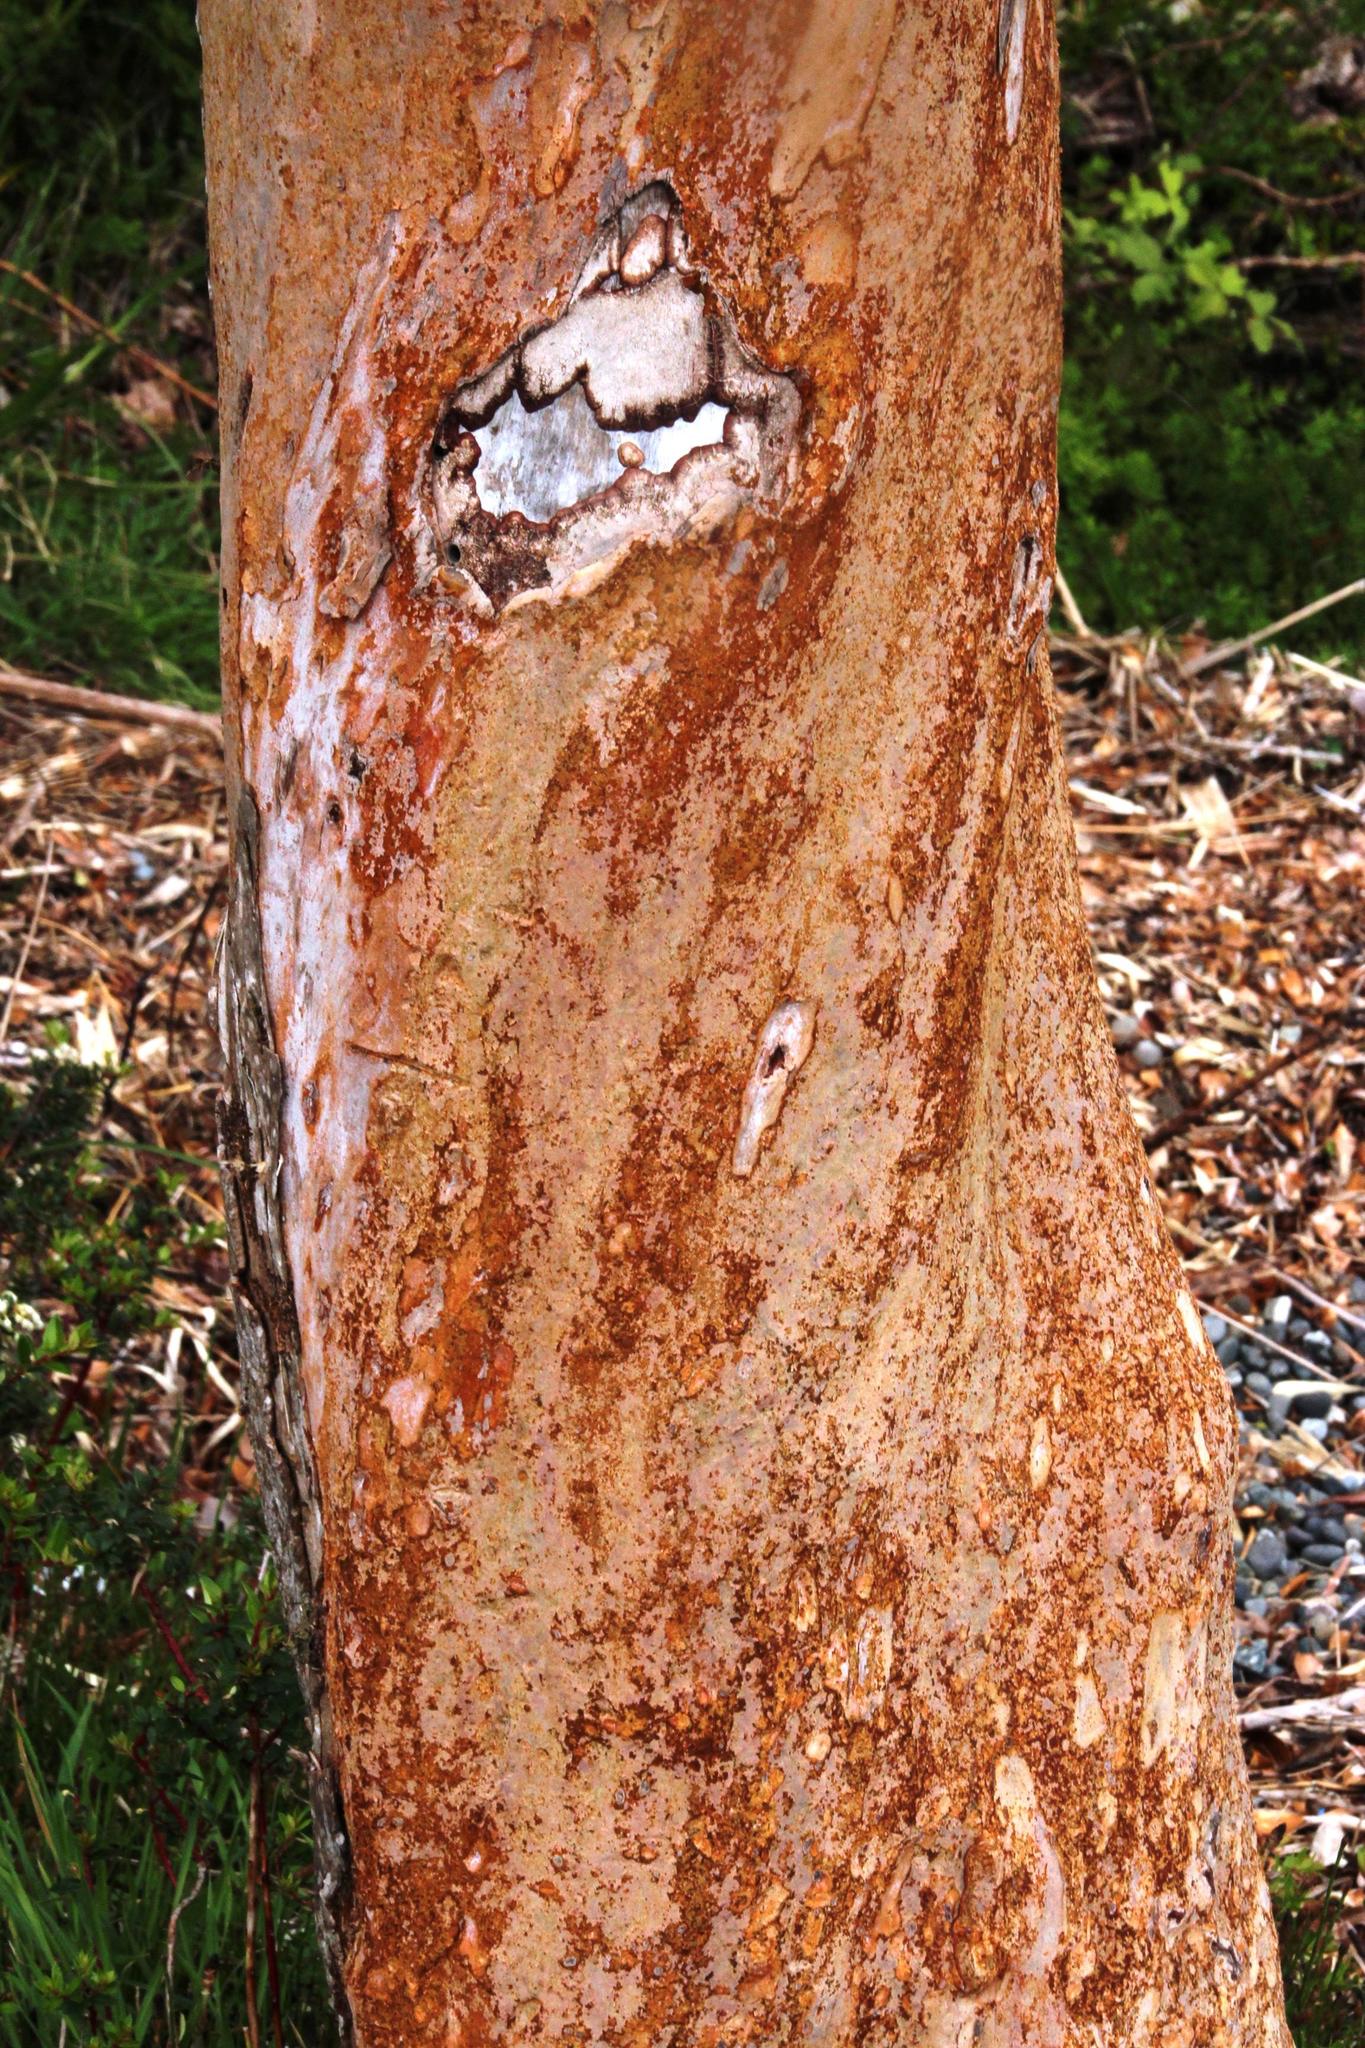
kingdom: Plantae
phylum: Tracheophyta
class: Magnoliopsida
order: Myrtales
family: Myrtaceae
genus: Luma
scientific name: Luma apiculata
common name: Chilean myrtle
